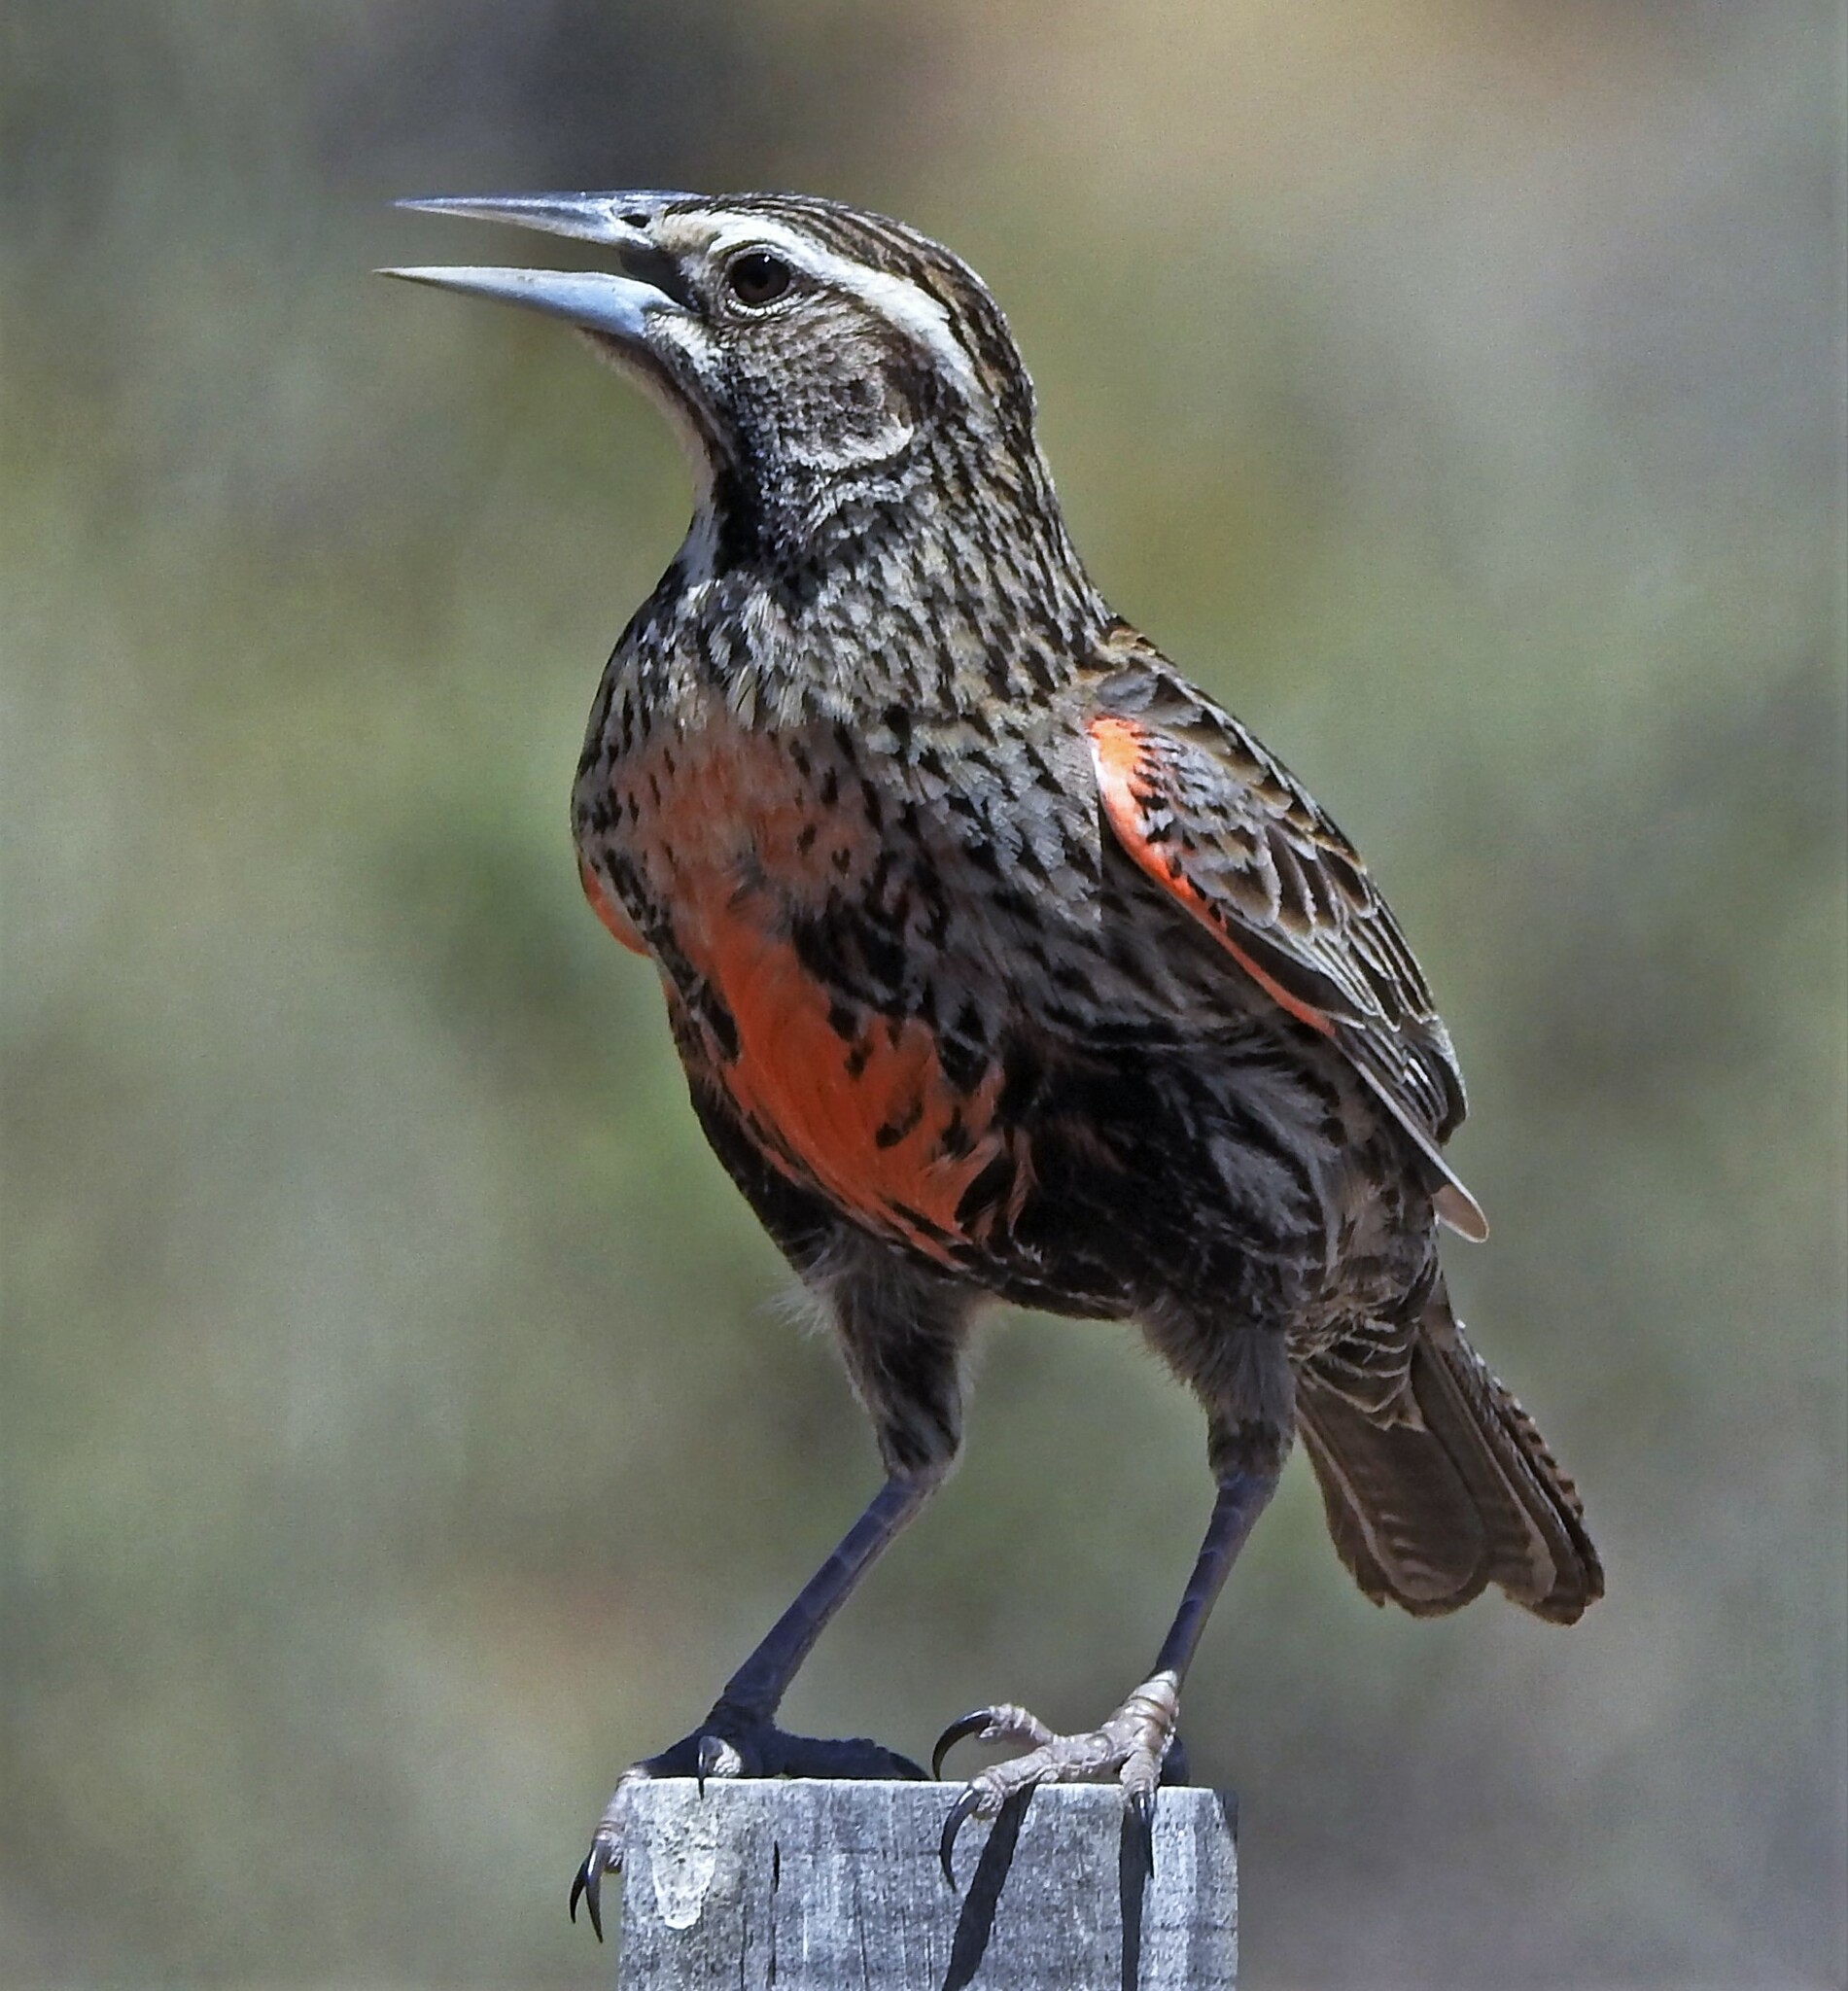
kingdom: Animalia
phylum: Chordata
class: Aves
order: Passeriformes
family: Icteridae
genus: Sturnella
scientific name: Sturnella loyca
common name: Long-tailed meadowlark
